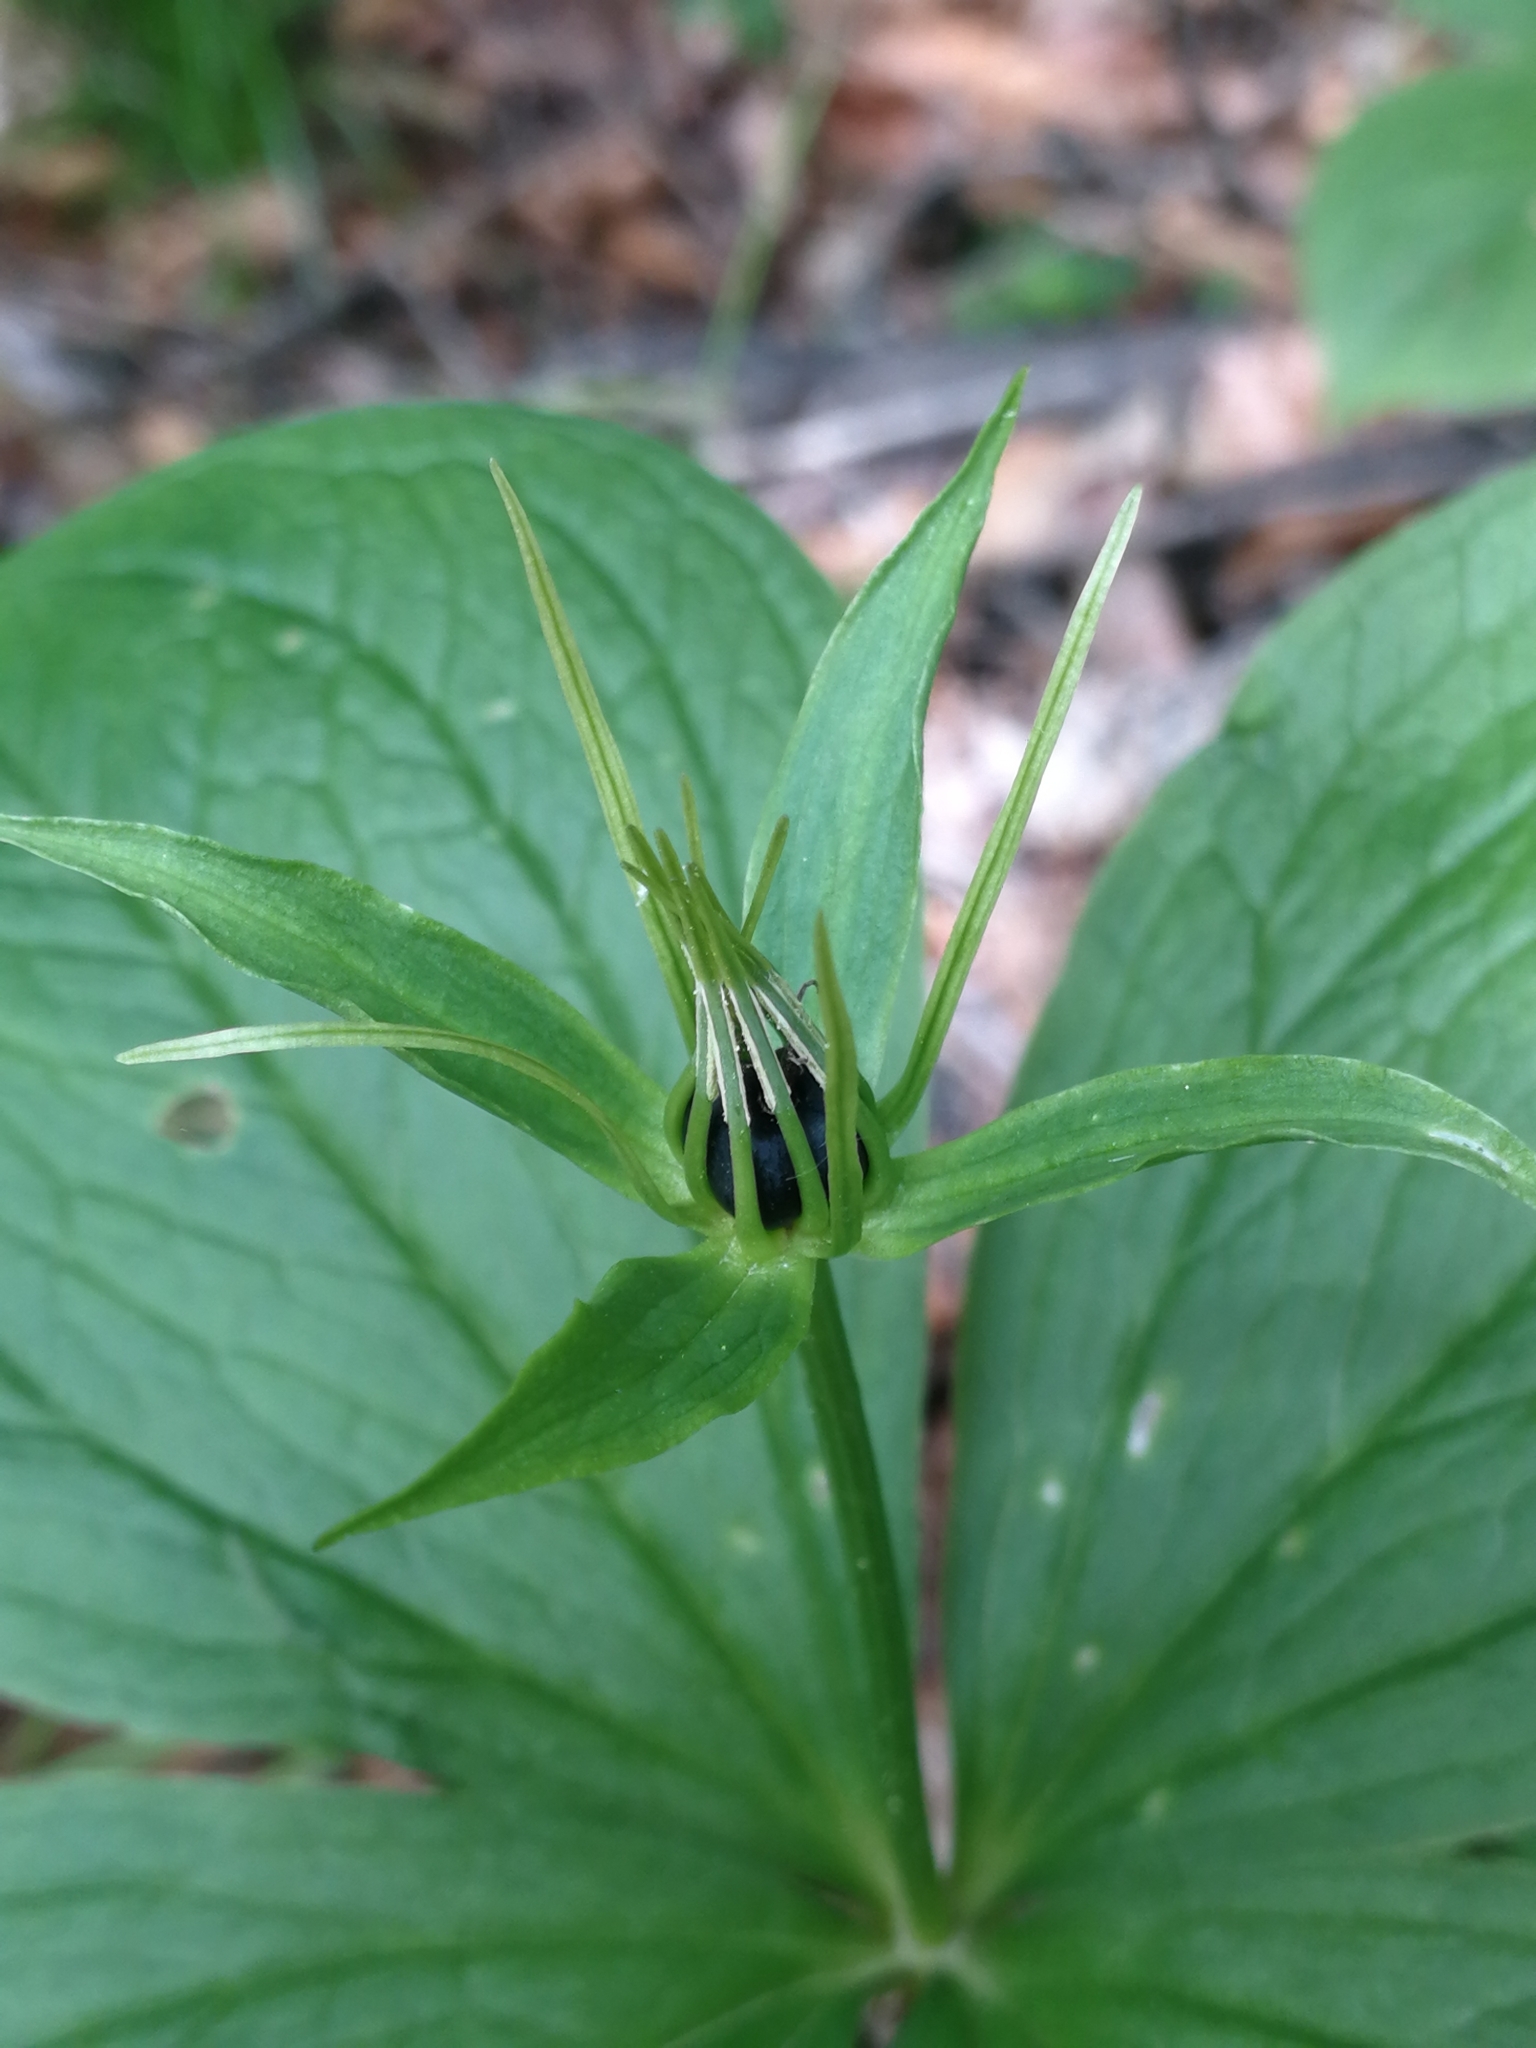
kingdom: Plantae
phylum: Tracheophyta
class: Liliopsida
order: Liliales
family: Melanthiaceae
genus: Paris
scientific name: Paris quadrifolia
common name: Herb-paris
